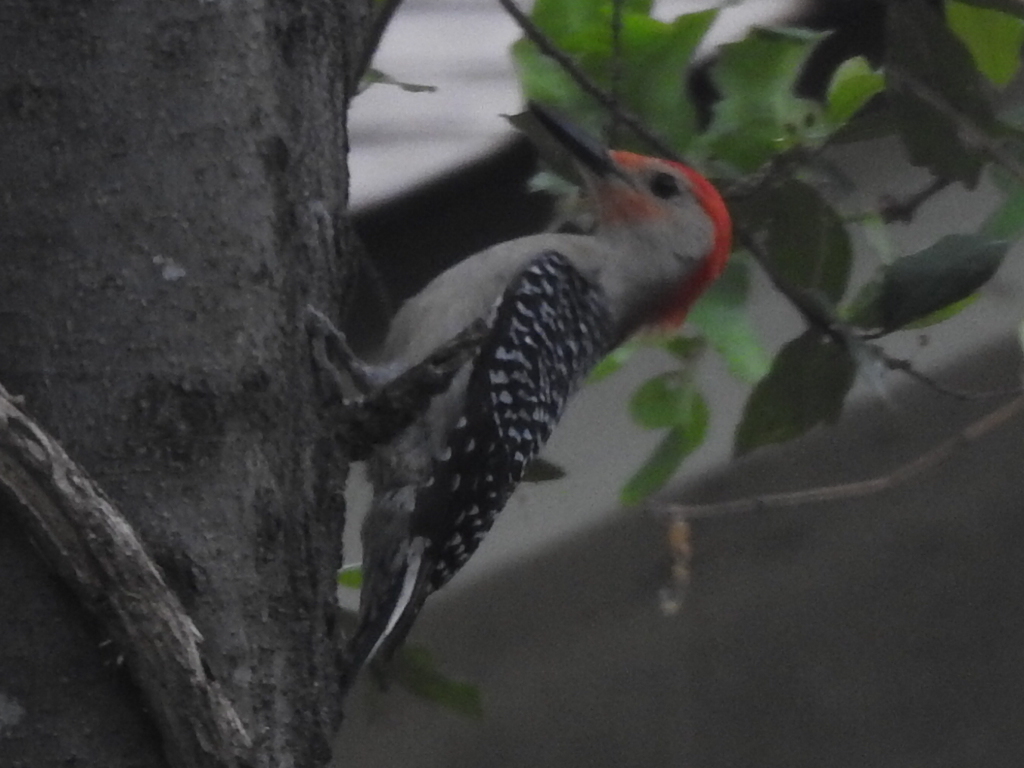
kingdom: Animalia
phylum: Chordata
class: Aves
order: Piciformes
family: Picidae
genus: Melanerpes
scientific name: Melanerpes carolinus
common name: Red-bellied woodpecker
